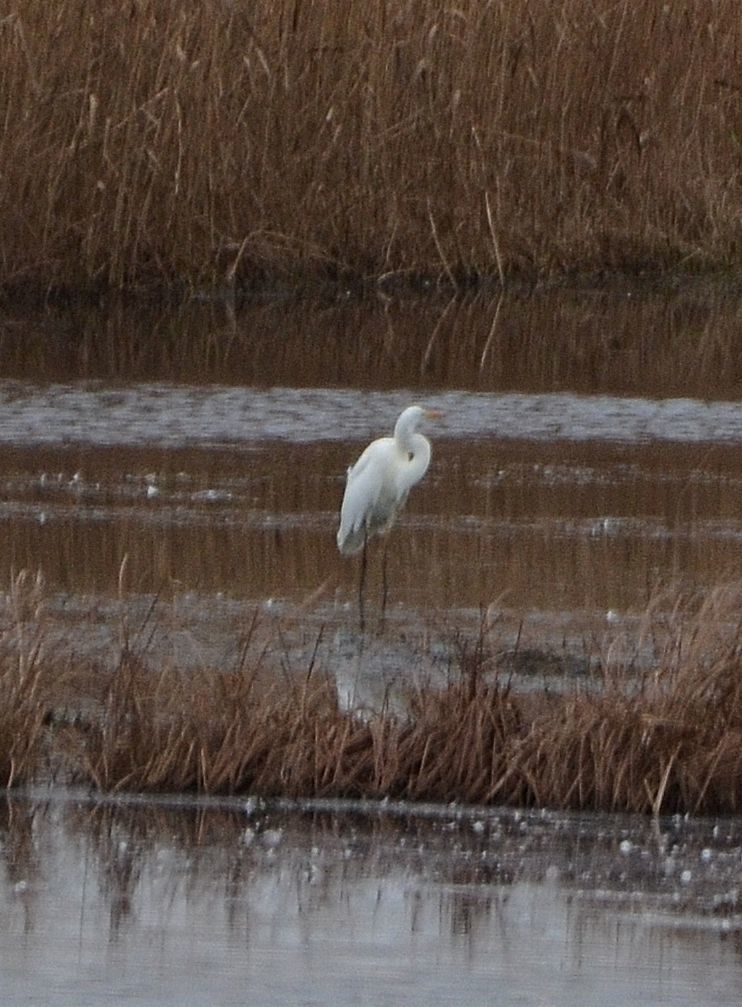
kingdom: Animalia
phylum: Chordata
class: Aves
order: Pelecaniformes
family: Ardeidae
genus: Ardea
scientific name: Ardea alba
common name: Great egret
